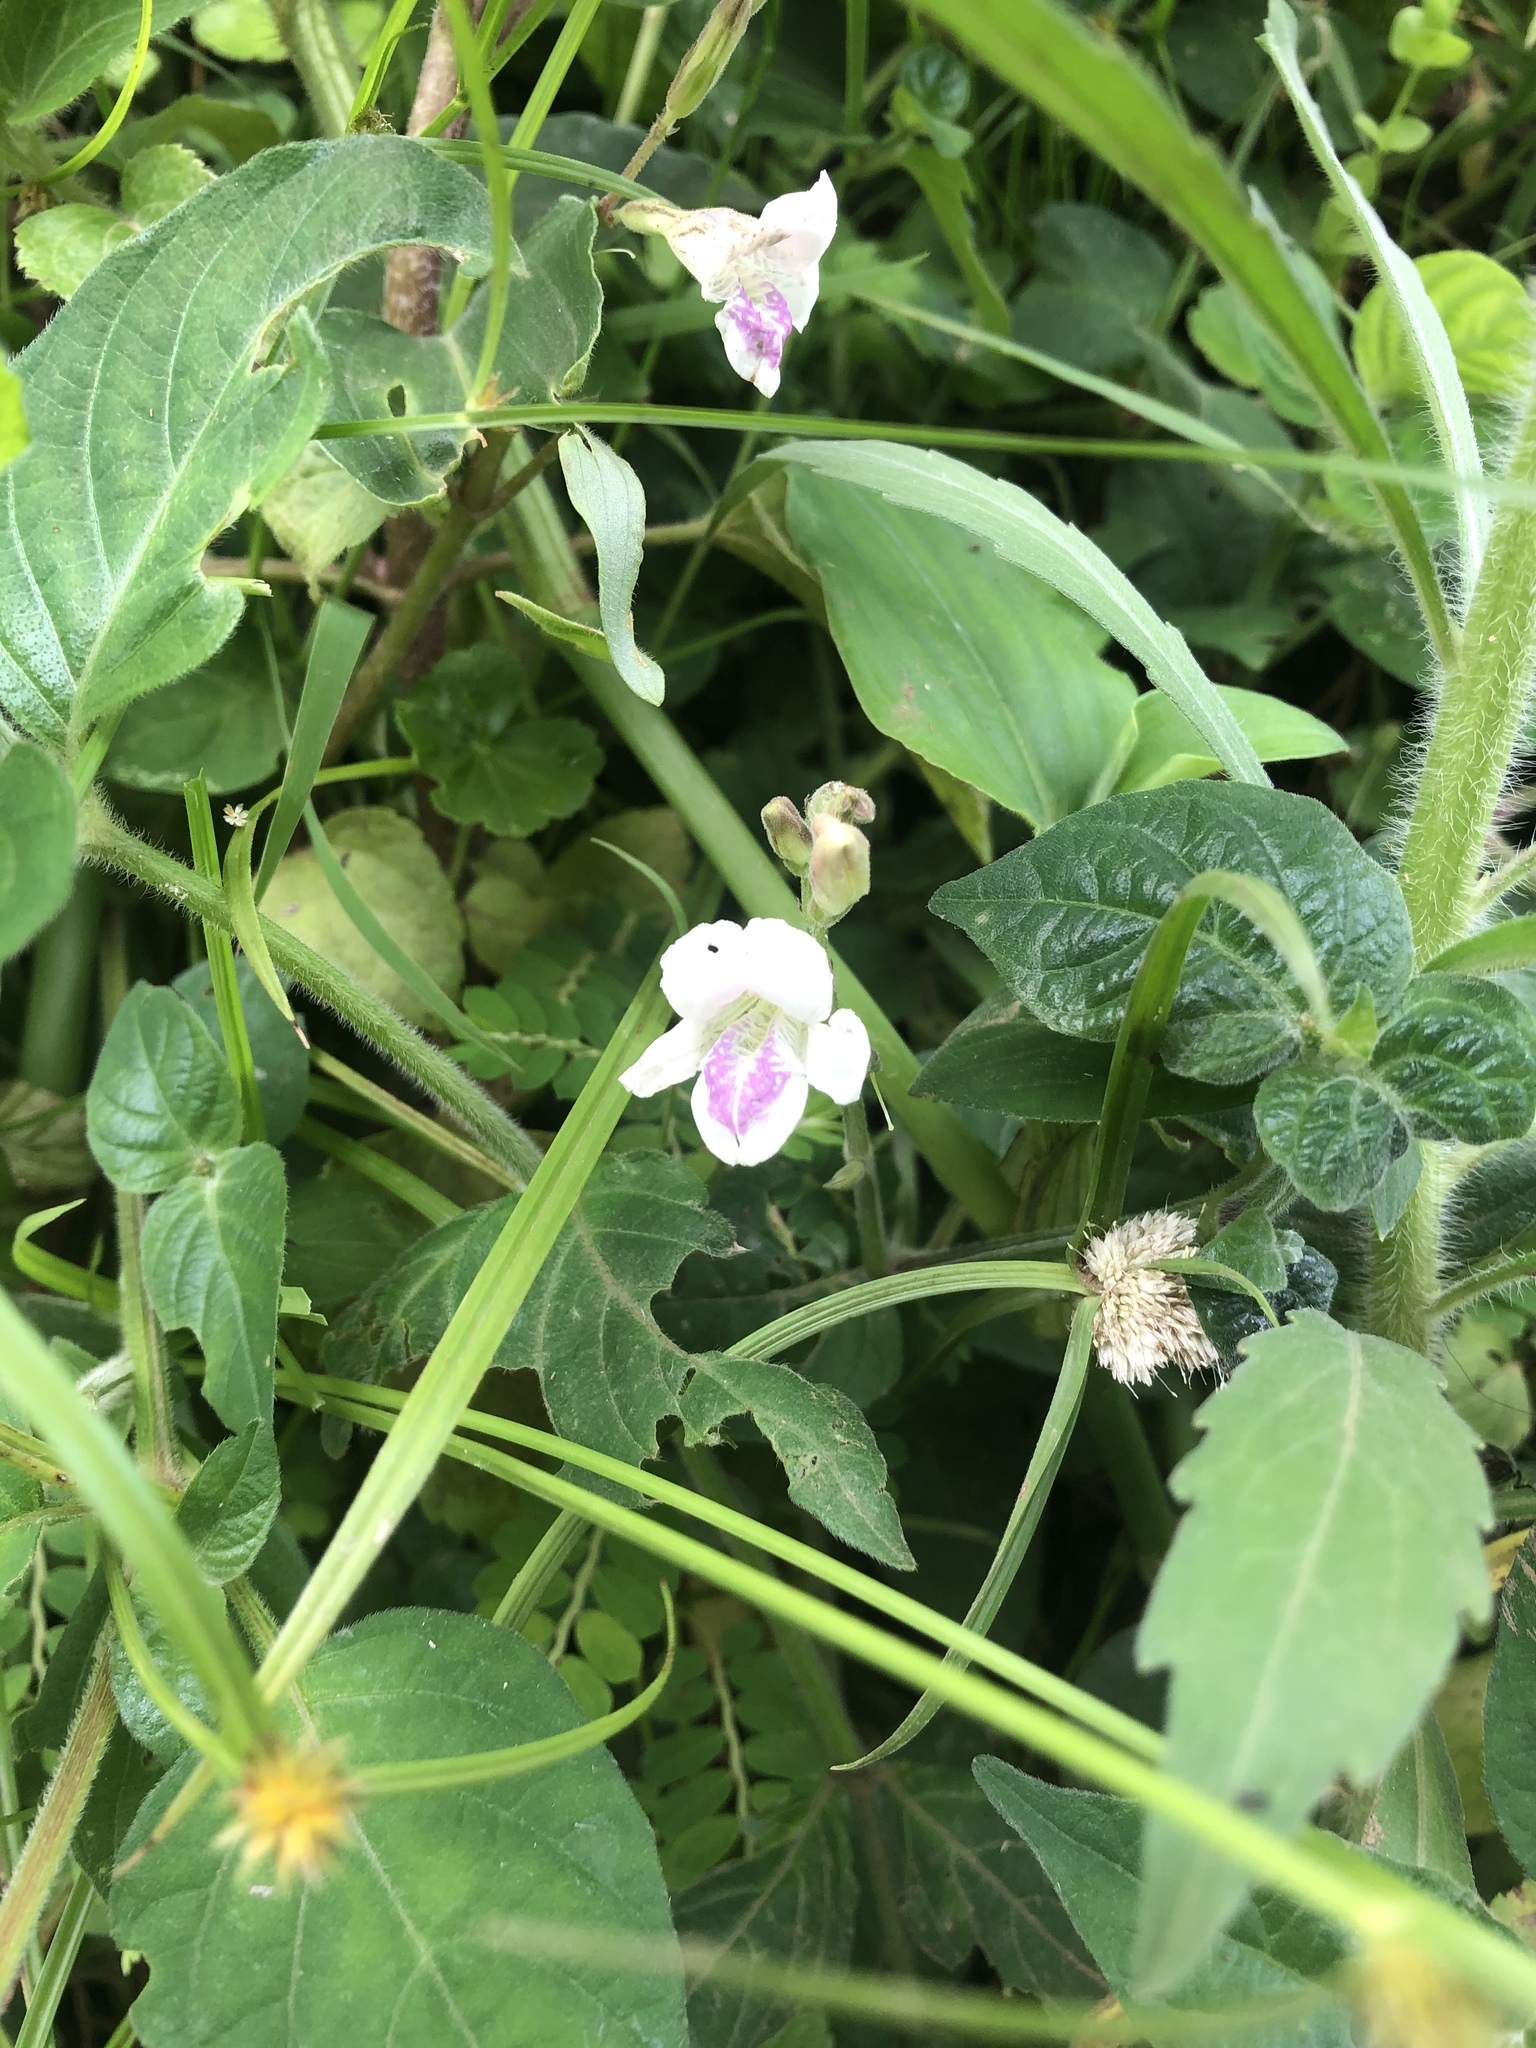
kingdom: Plantae
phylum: Tracheophyta
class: Magnoliopsida
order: Lamiales
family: Acanthaceae
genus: Asystasia
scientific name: Asystasia intrusa
